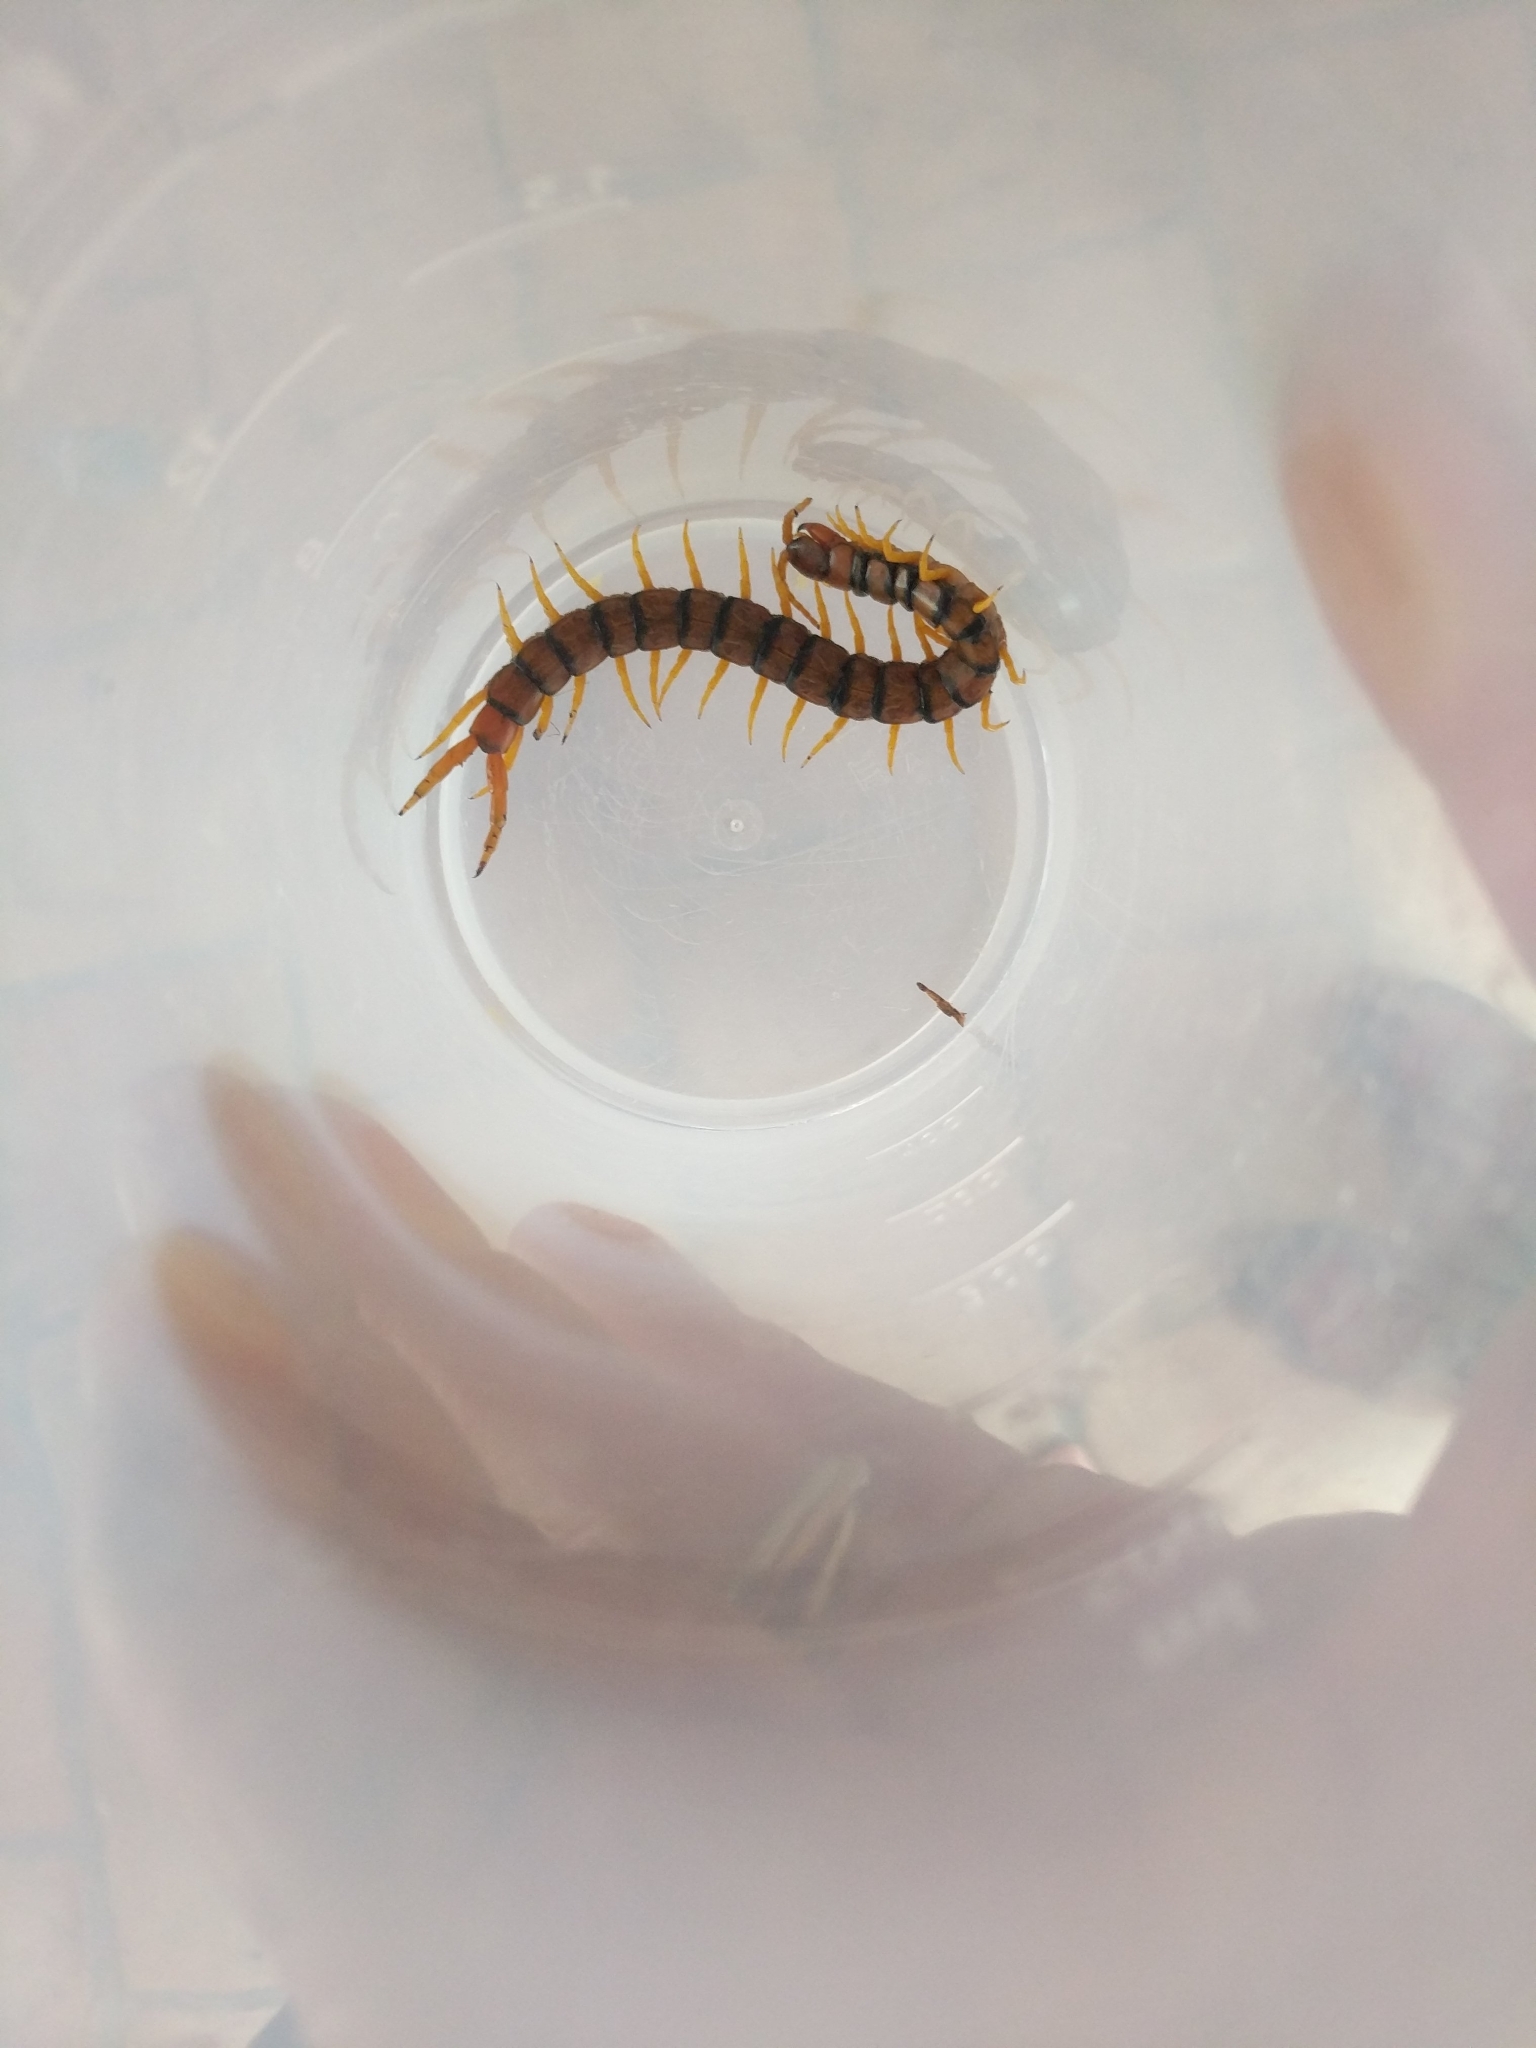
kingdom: Animalia
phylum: Arthropoda
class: Chilopoda
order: Scolopendromorpha
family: Scolopendridae
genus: Scolopendra
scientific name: Scolopendra cingulata
